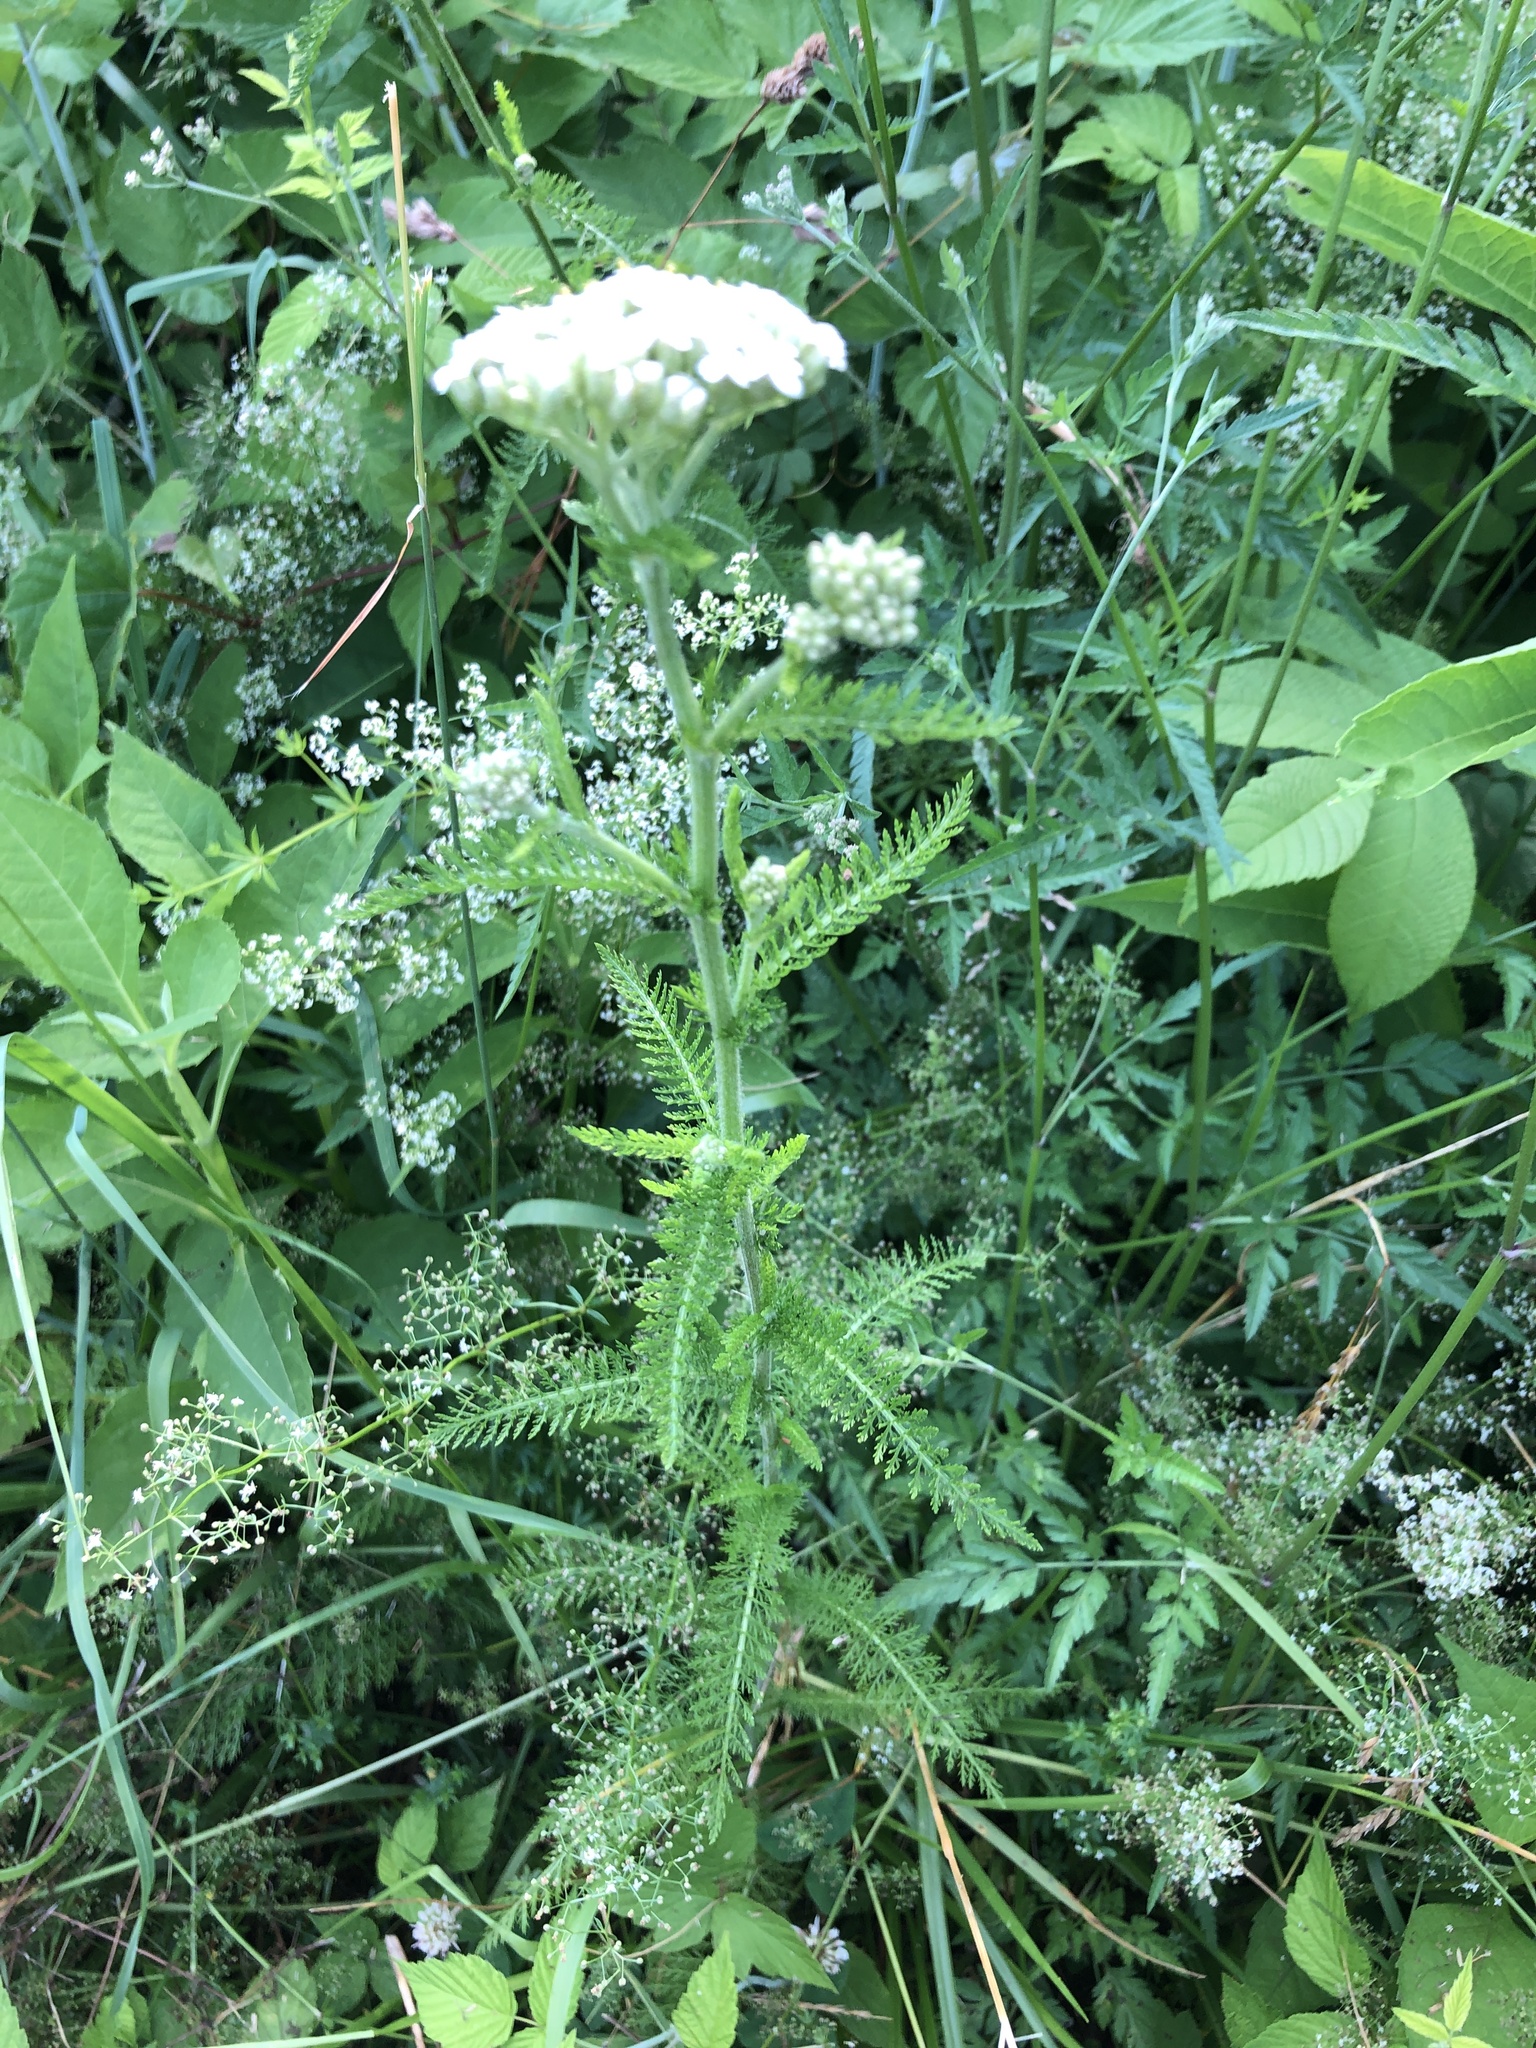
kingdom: Plantae
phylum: Tracheophyta
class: Magnoliopsida
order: Asterales
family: Asteraceae
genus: Achillea
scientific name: Achillea millefolium
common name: Yarrow
